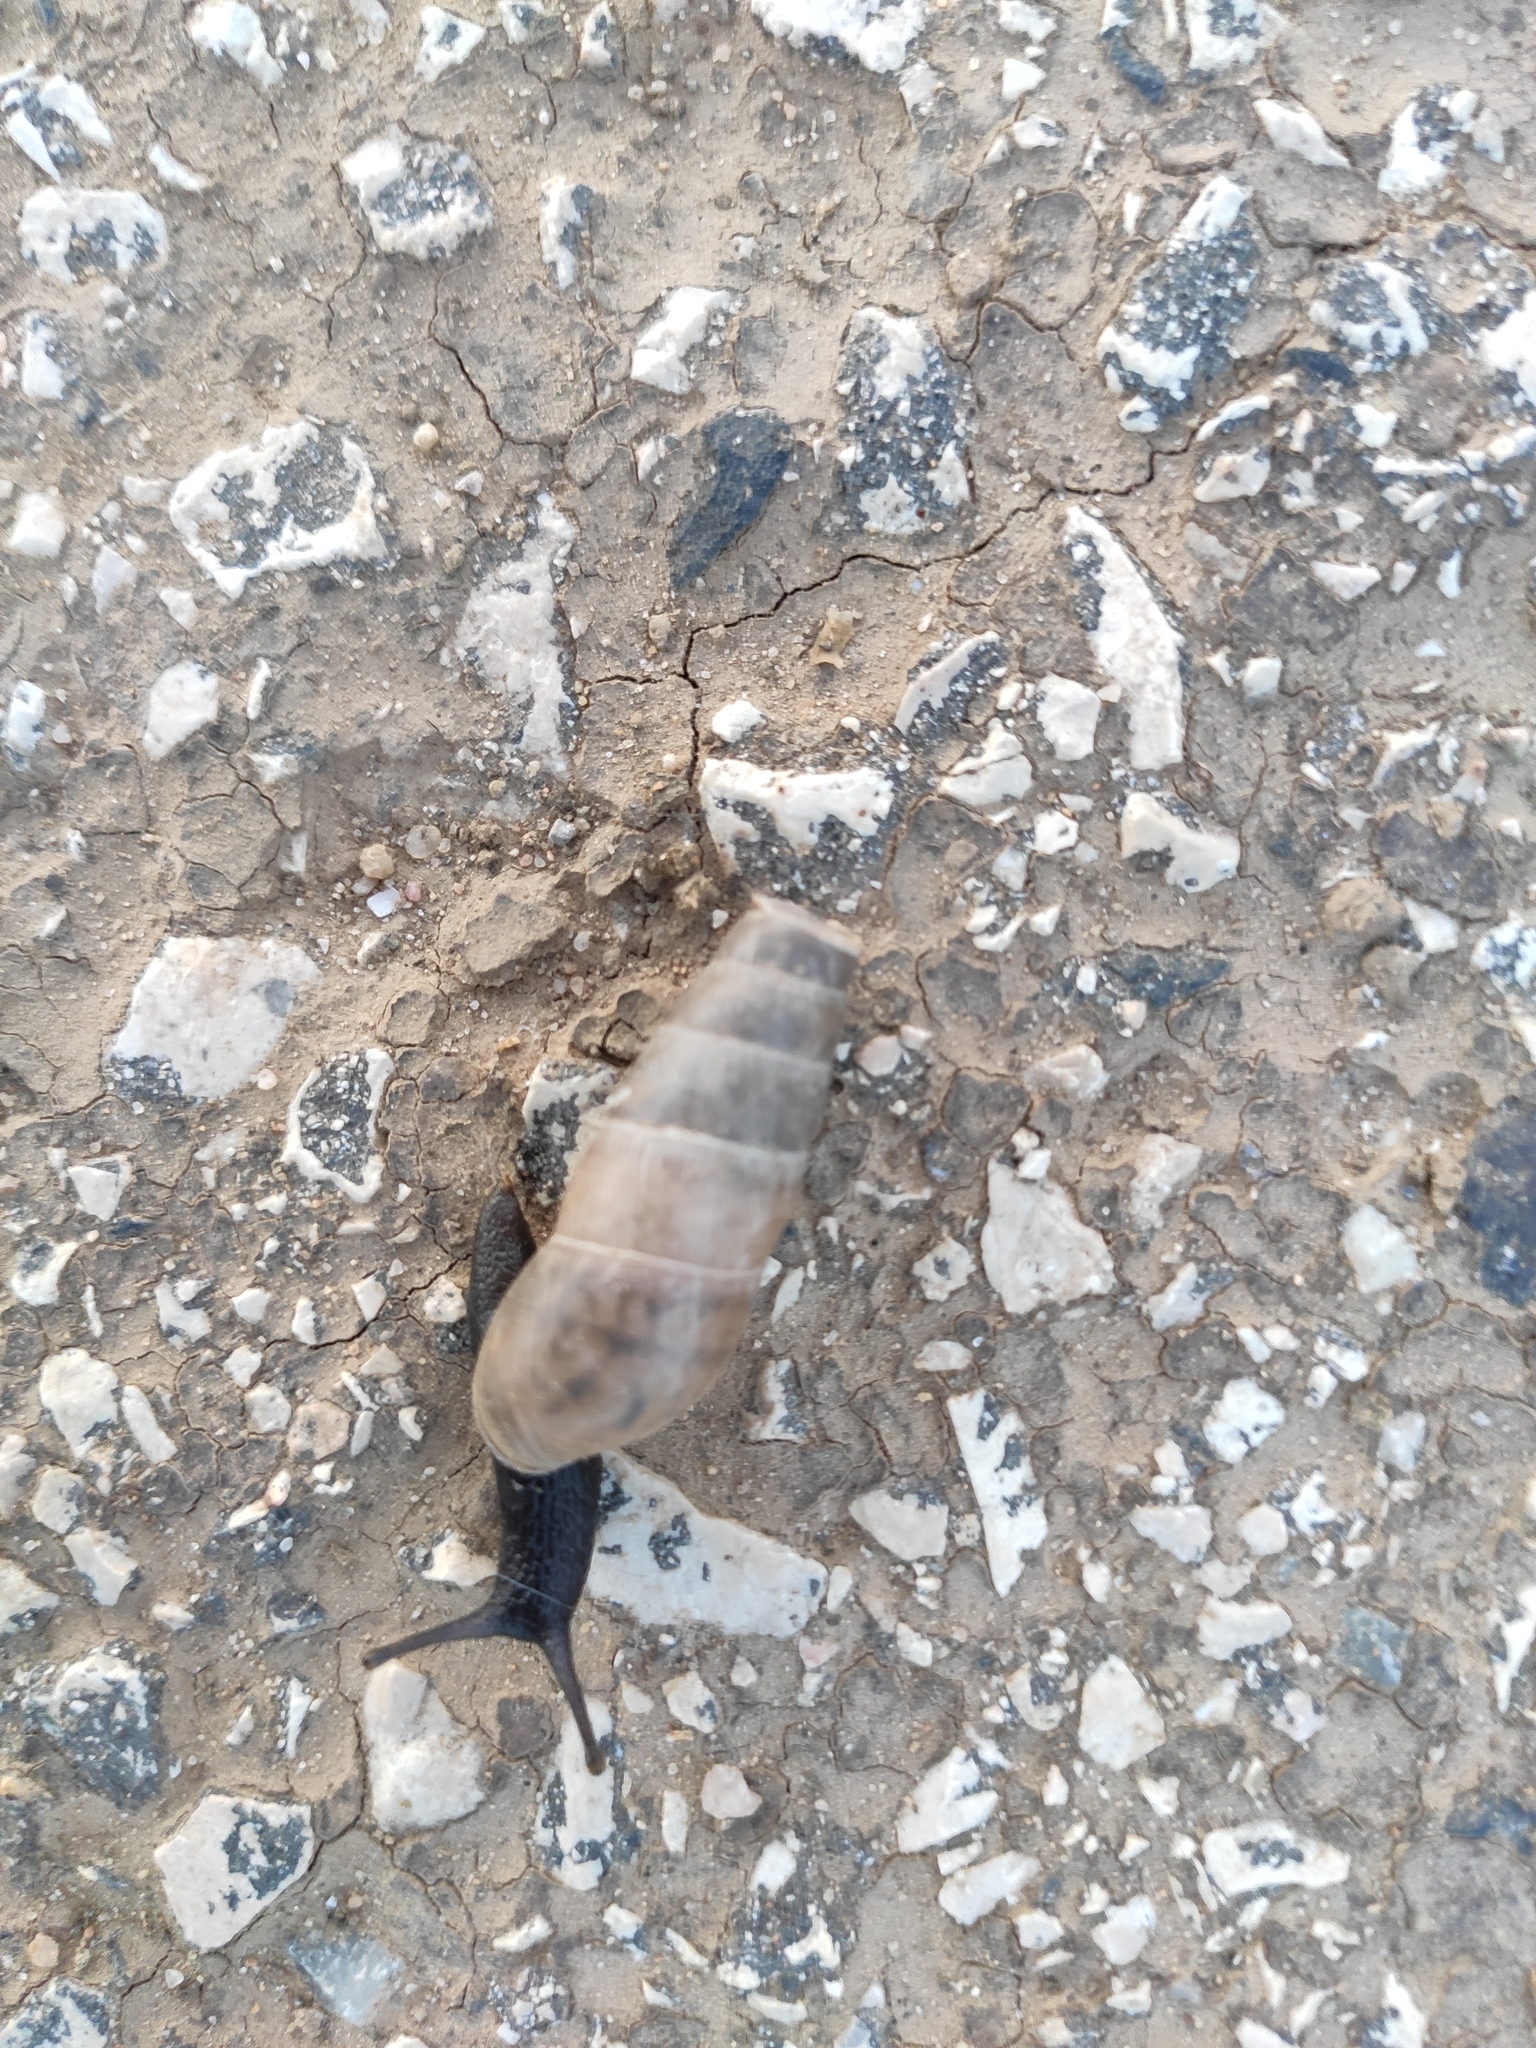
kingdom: Animalia
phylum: Mollusca
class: Gastropoda
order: Stylommatophora
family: Achatinidae
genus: Rumina
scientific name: Rumina decollata
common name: Decollate snail
